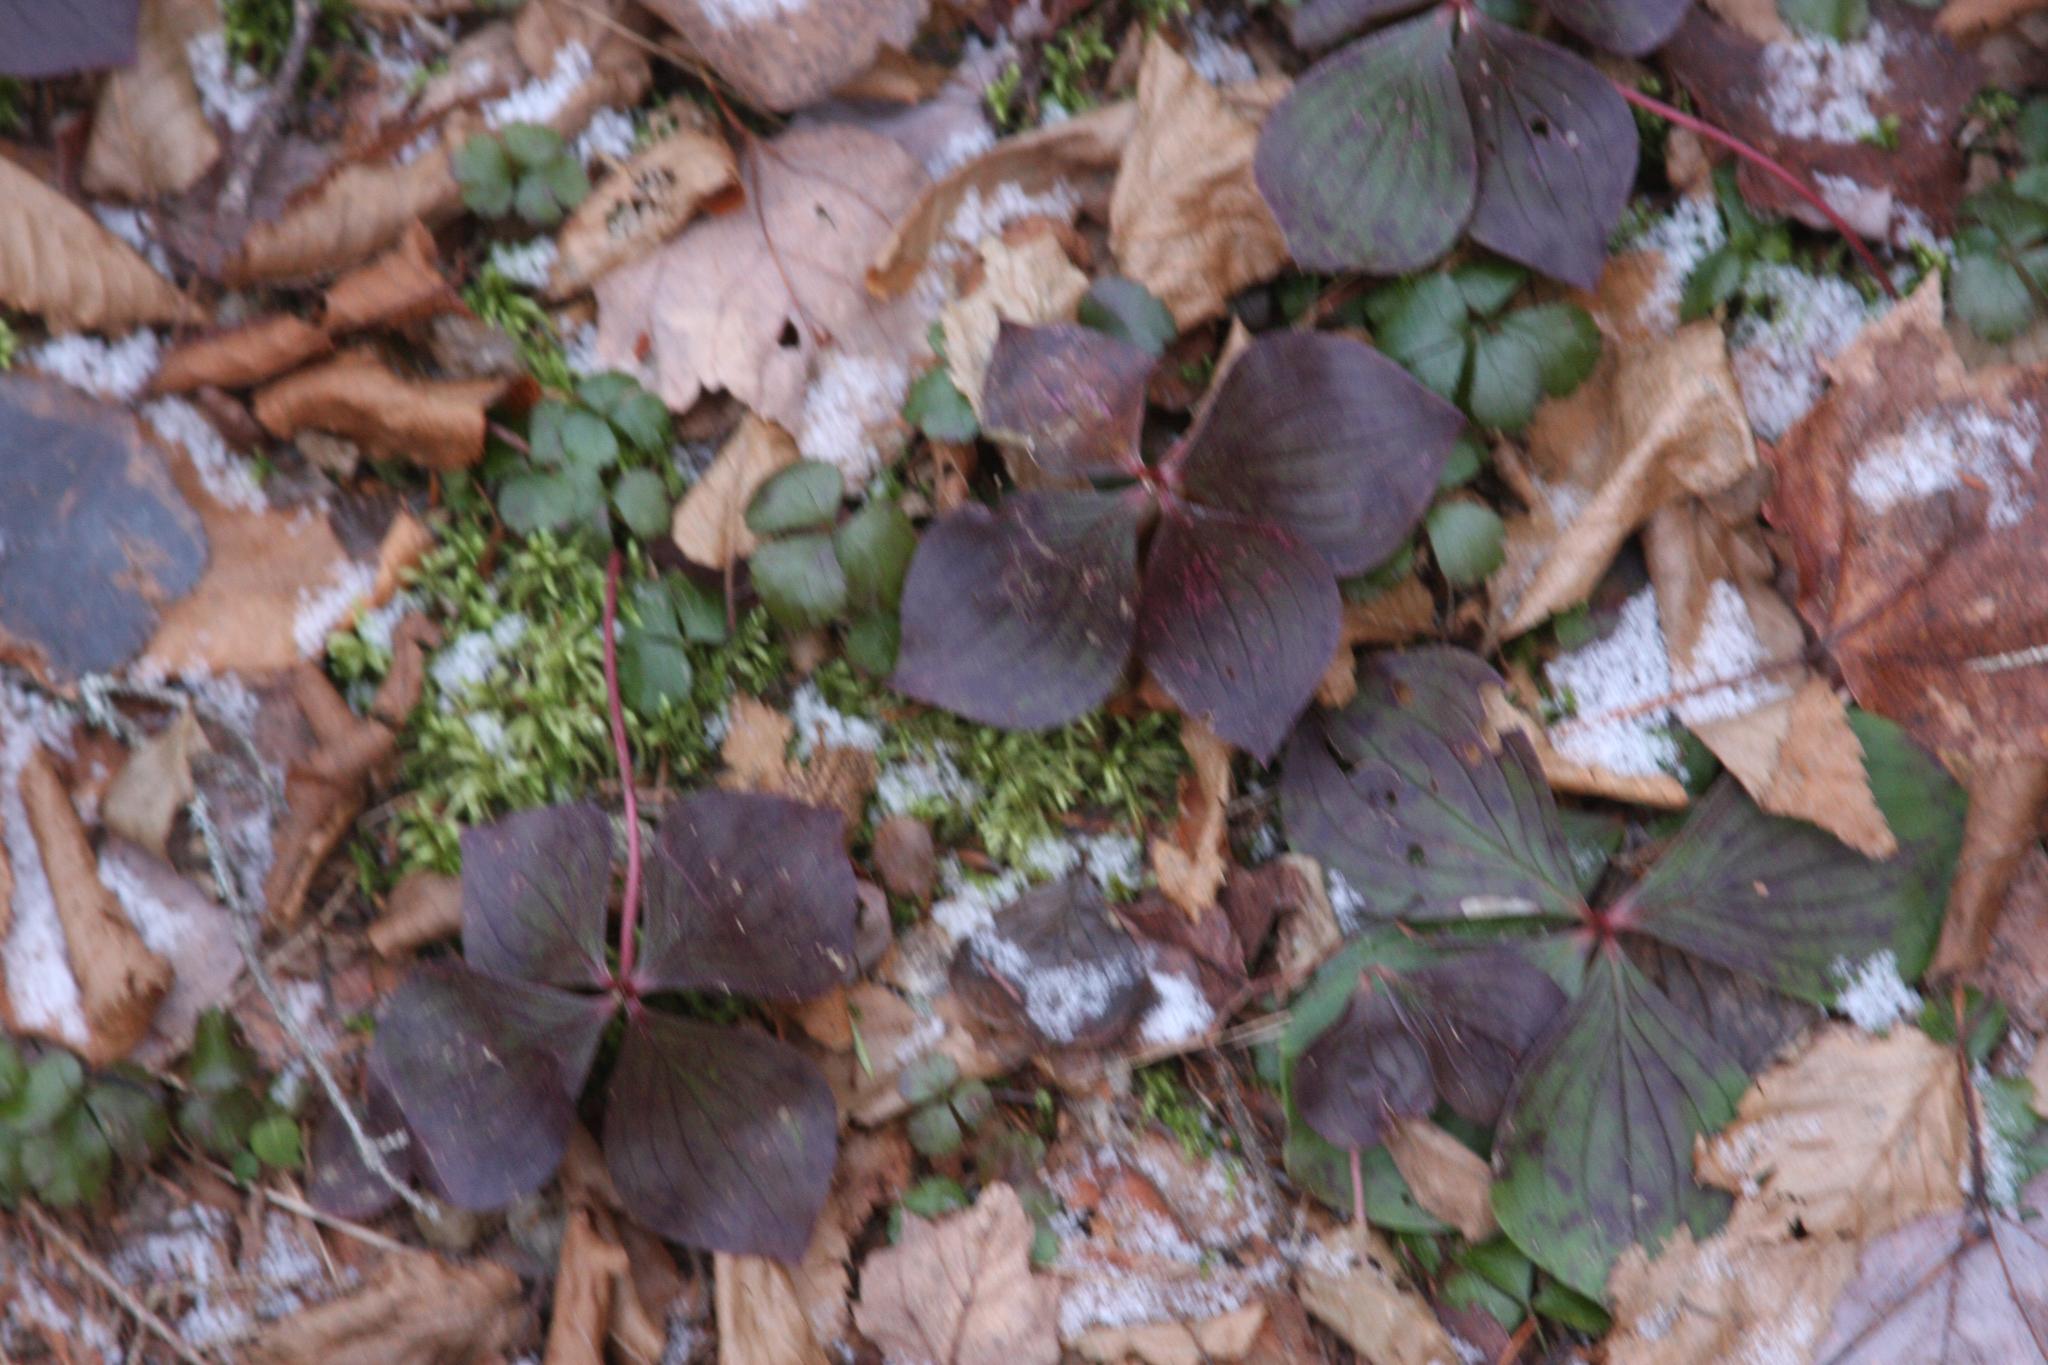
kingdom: Plantae
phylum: Tracheophyta
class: Magnoliopsida
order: Cornales
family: Cornaceae
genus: Cornus
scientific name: Cornus canadensis
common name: Creeping dogwood
